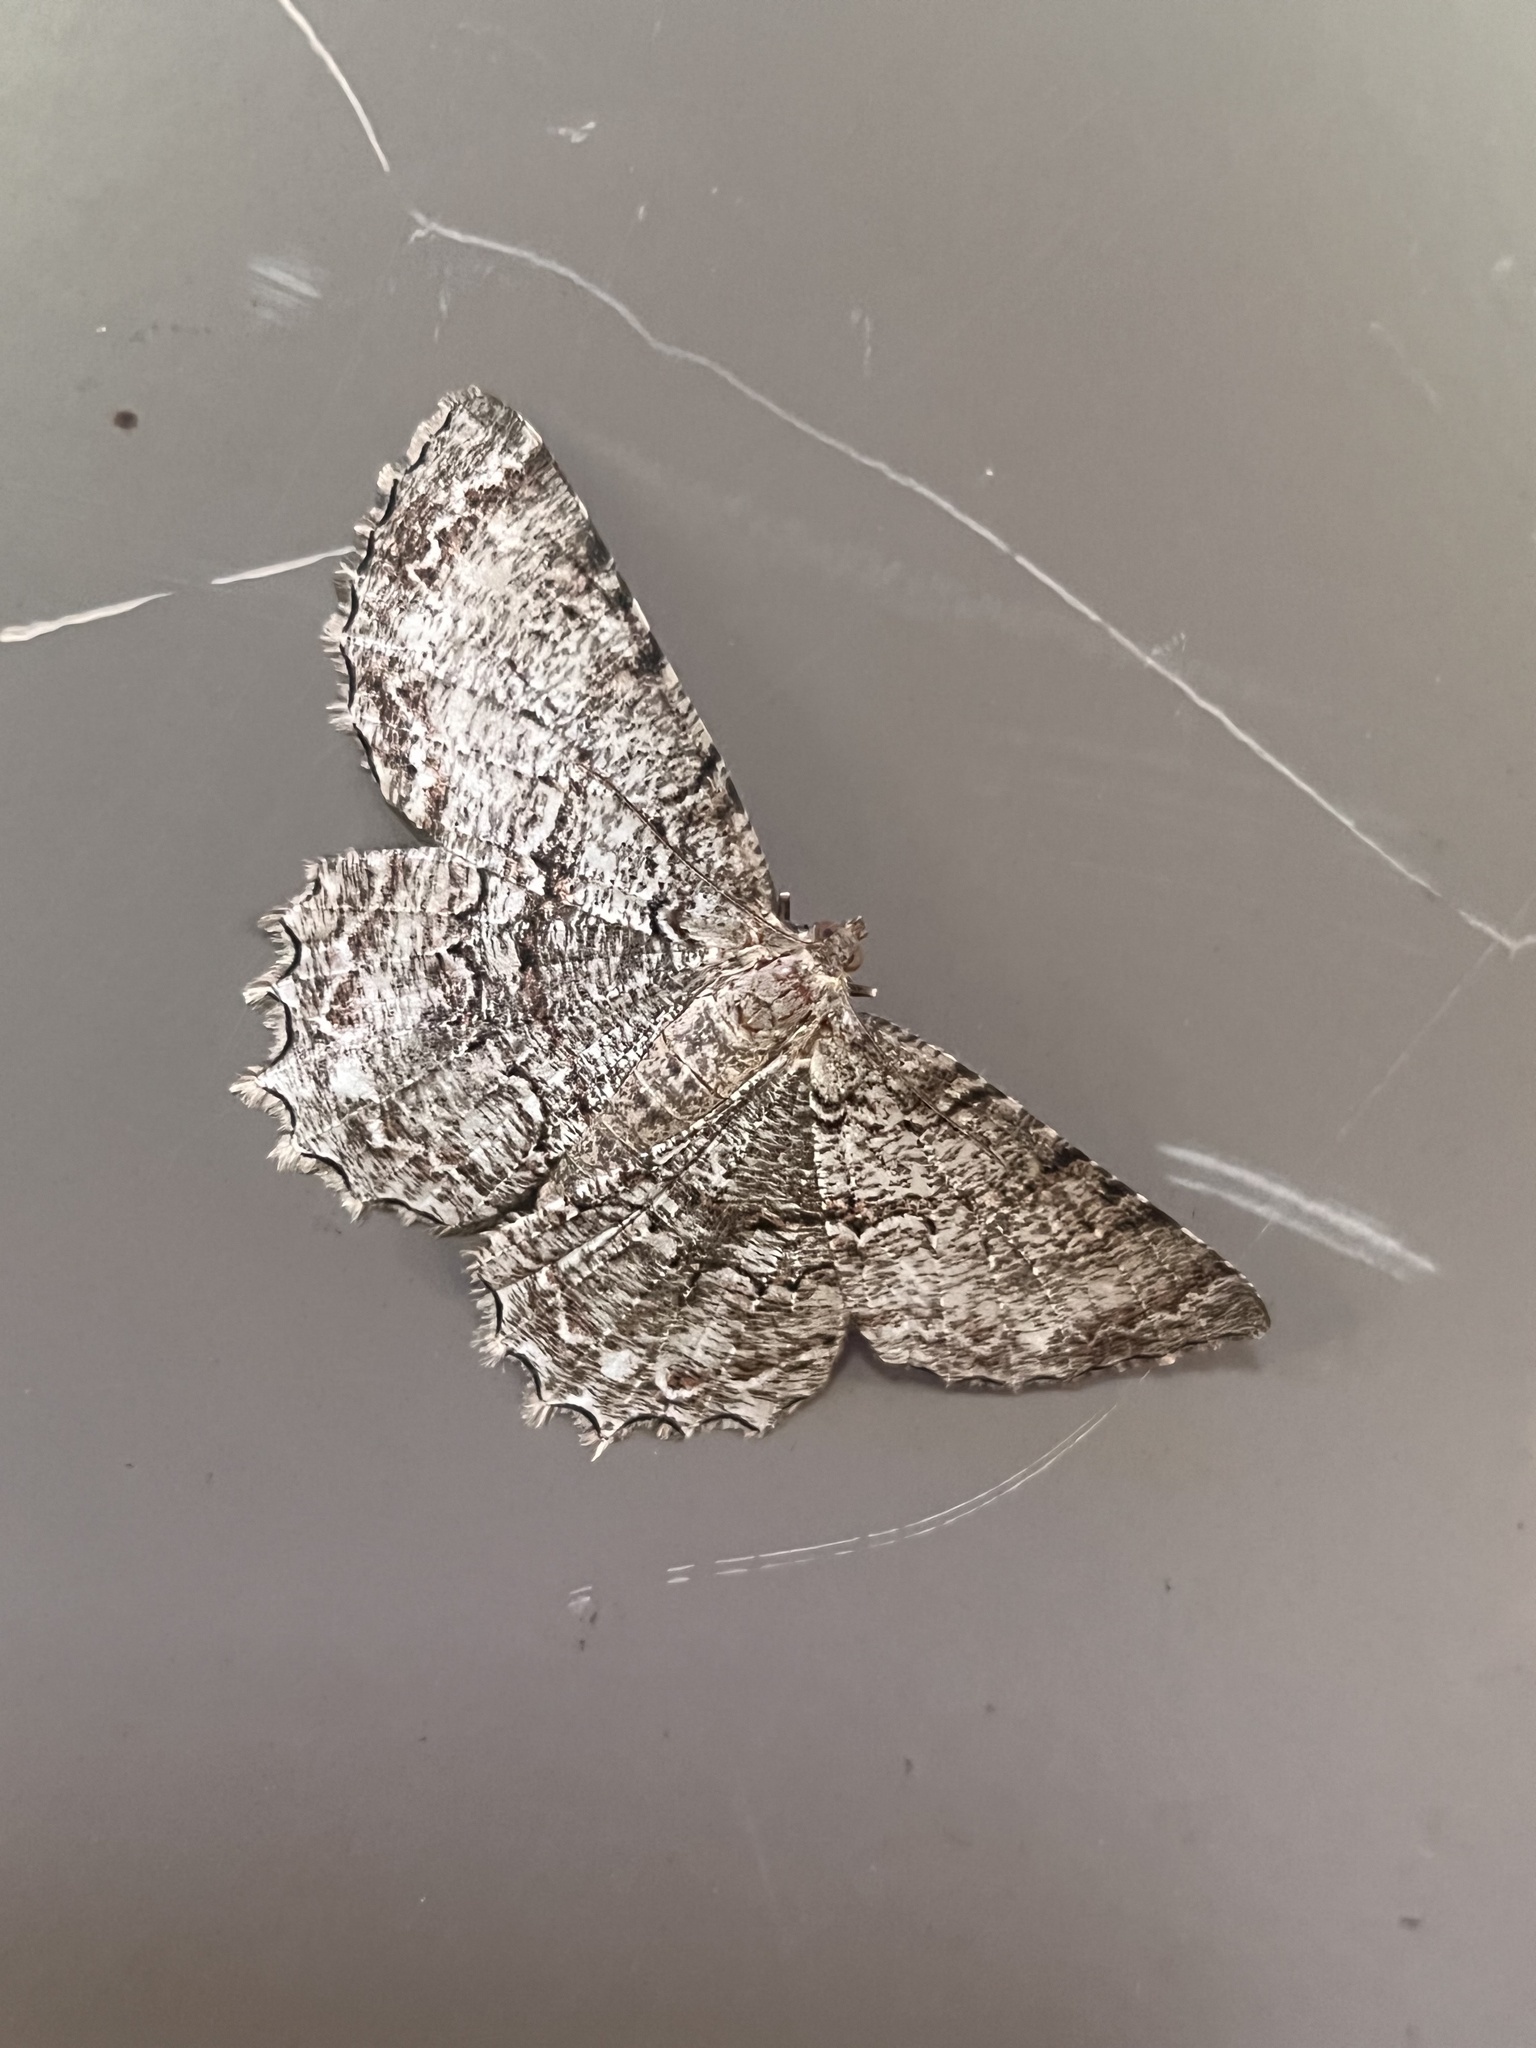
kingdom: Animalia
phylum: Arthropoda
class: Insecta
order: Lepidoptera
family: Geometridae
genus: Epimecis
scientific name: Epimecis hortaria
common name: Tulip-tree beauty
